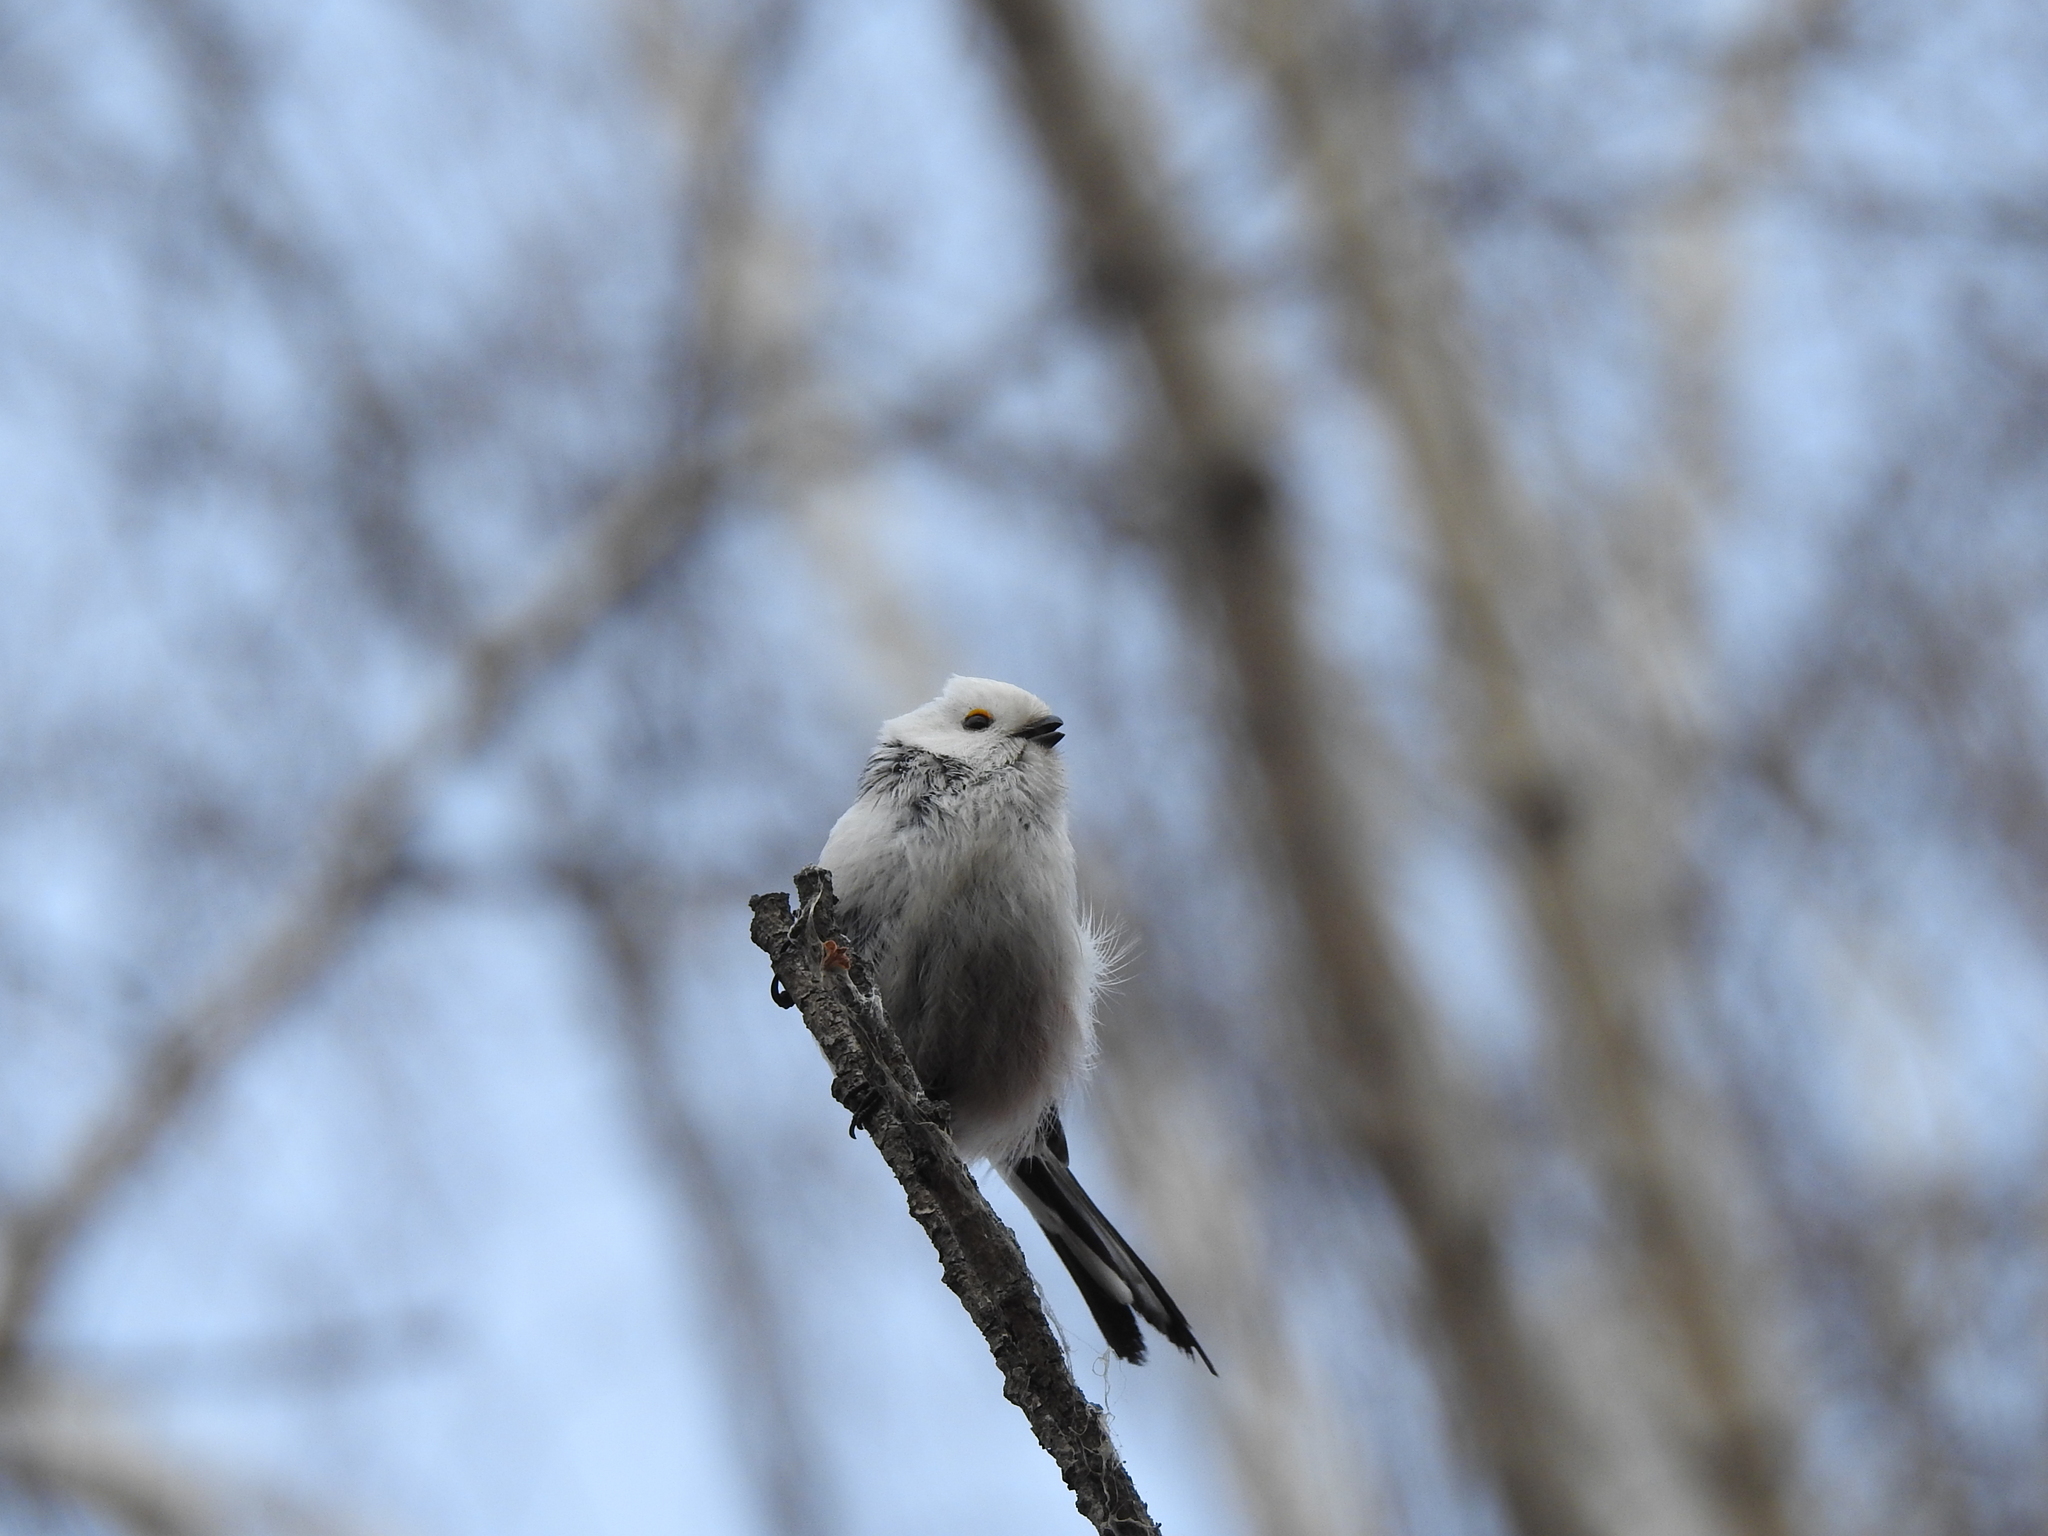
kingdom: Animalia
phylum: Chordata
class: Aves
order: Passeriformes
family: Aegithalidae
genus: Aegithalos
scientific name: Aegithalos caudatus
